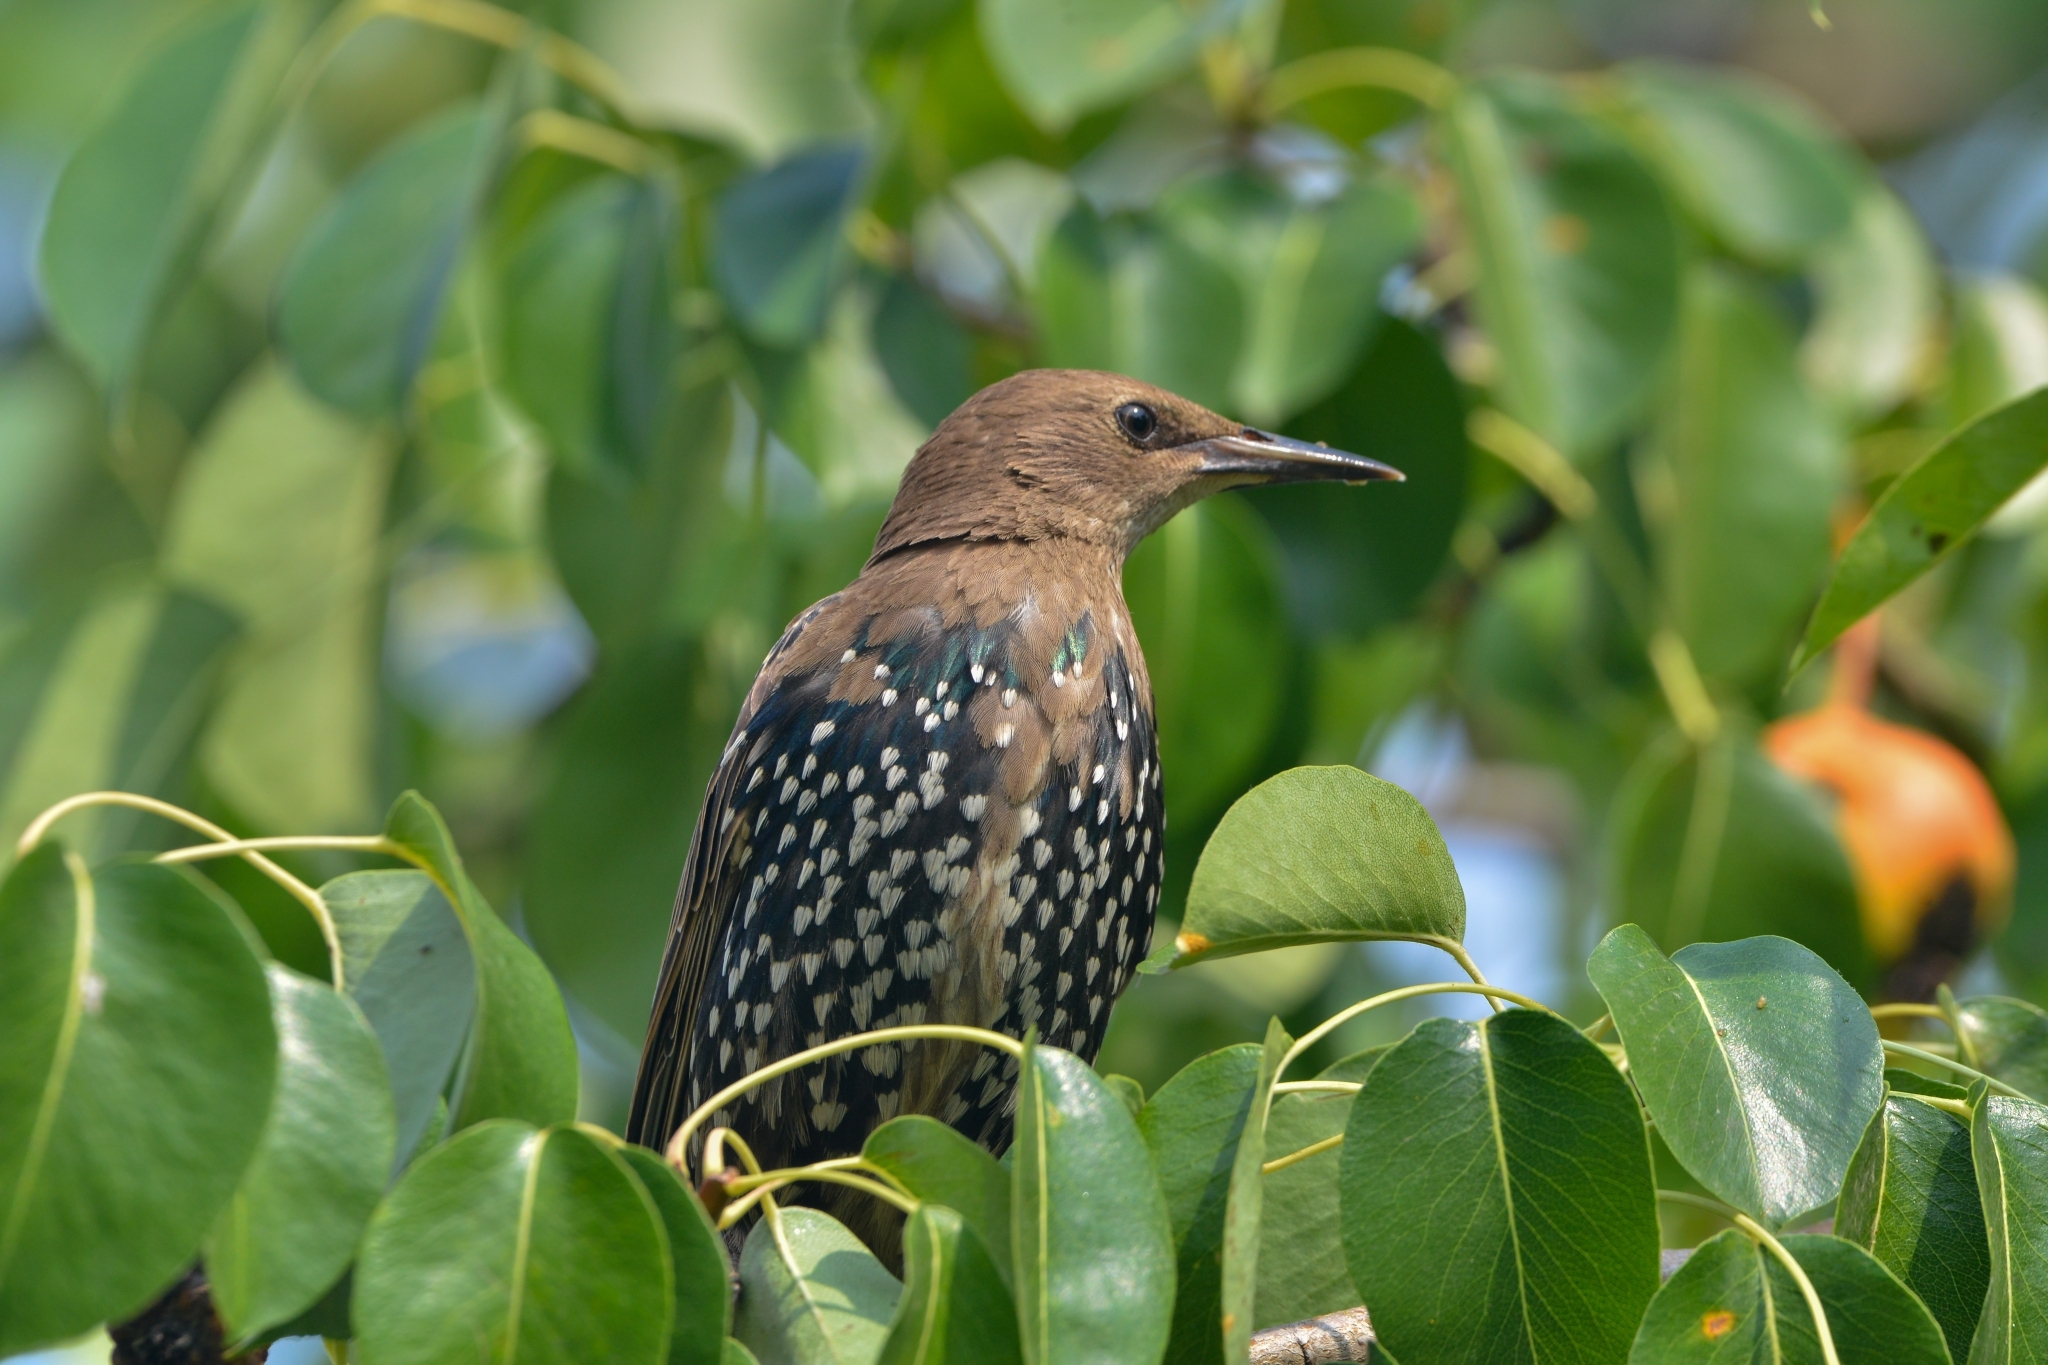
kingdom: Animalia
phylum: Chordata
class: Aves
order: Passeriformes
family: Sturnidae
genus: Sturnus
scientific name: Sturnus vulgaris
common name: Common starling
